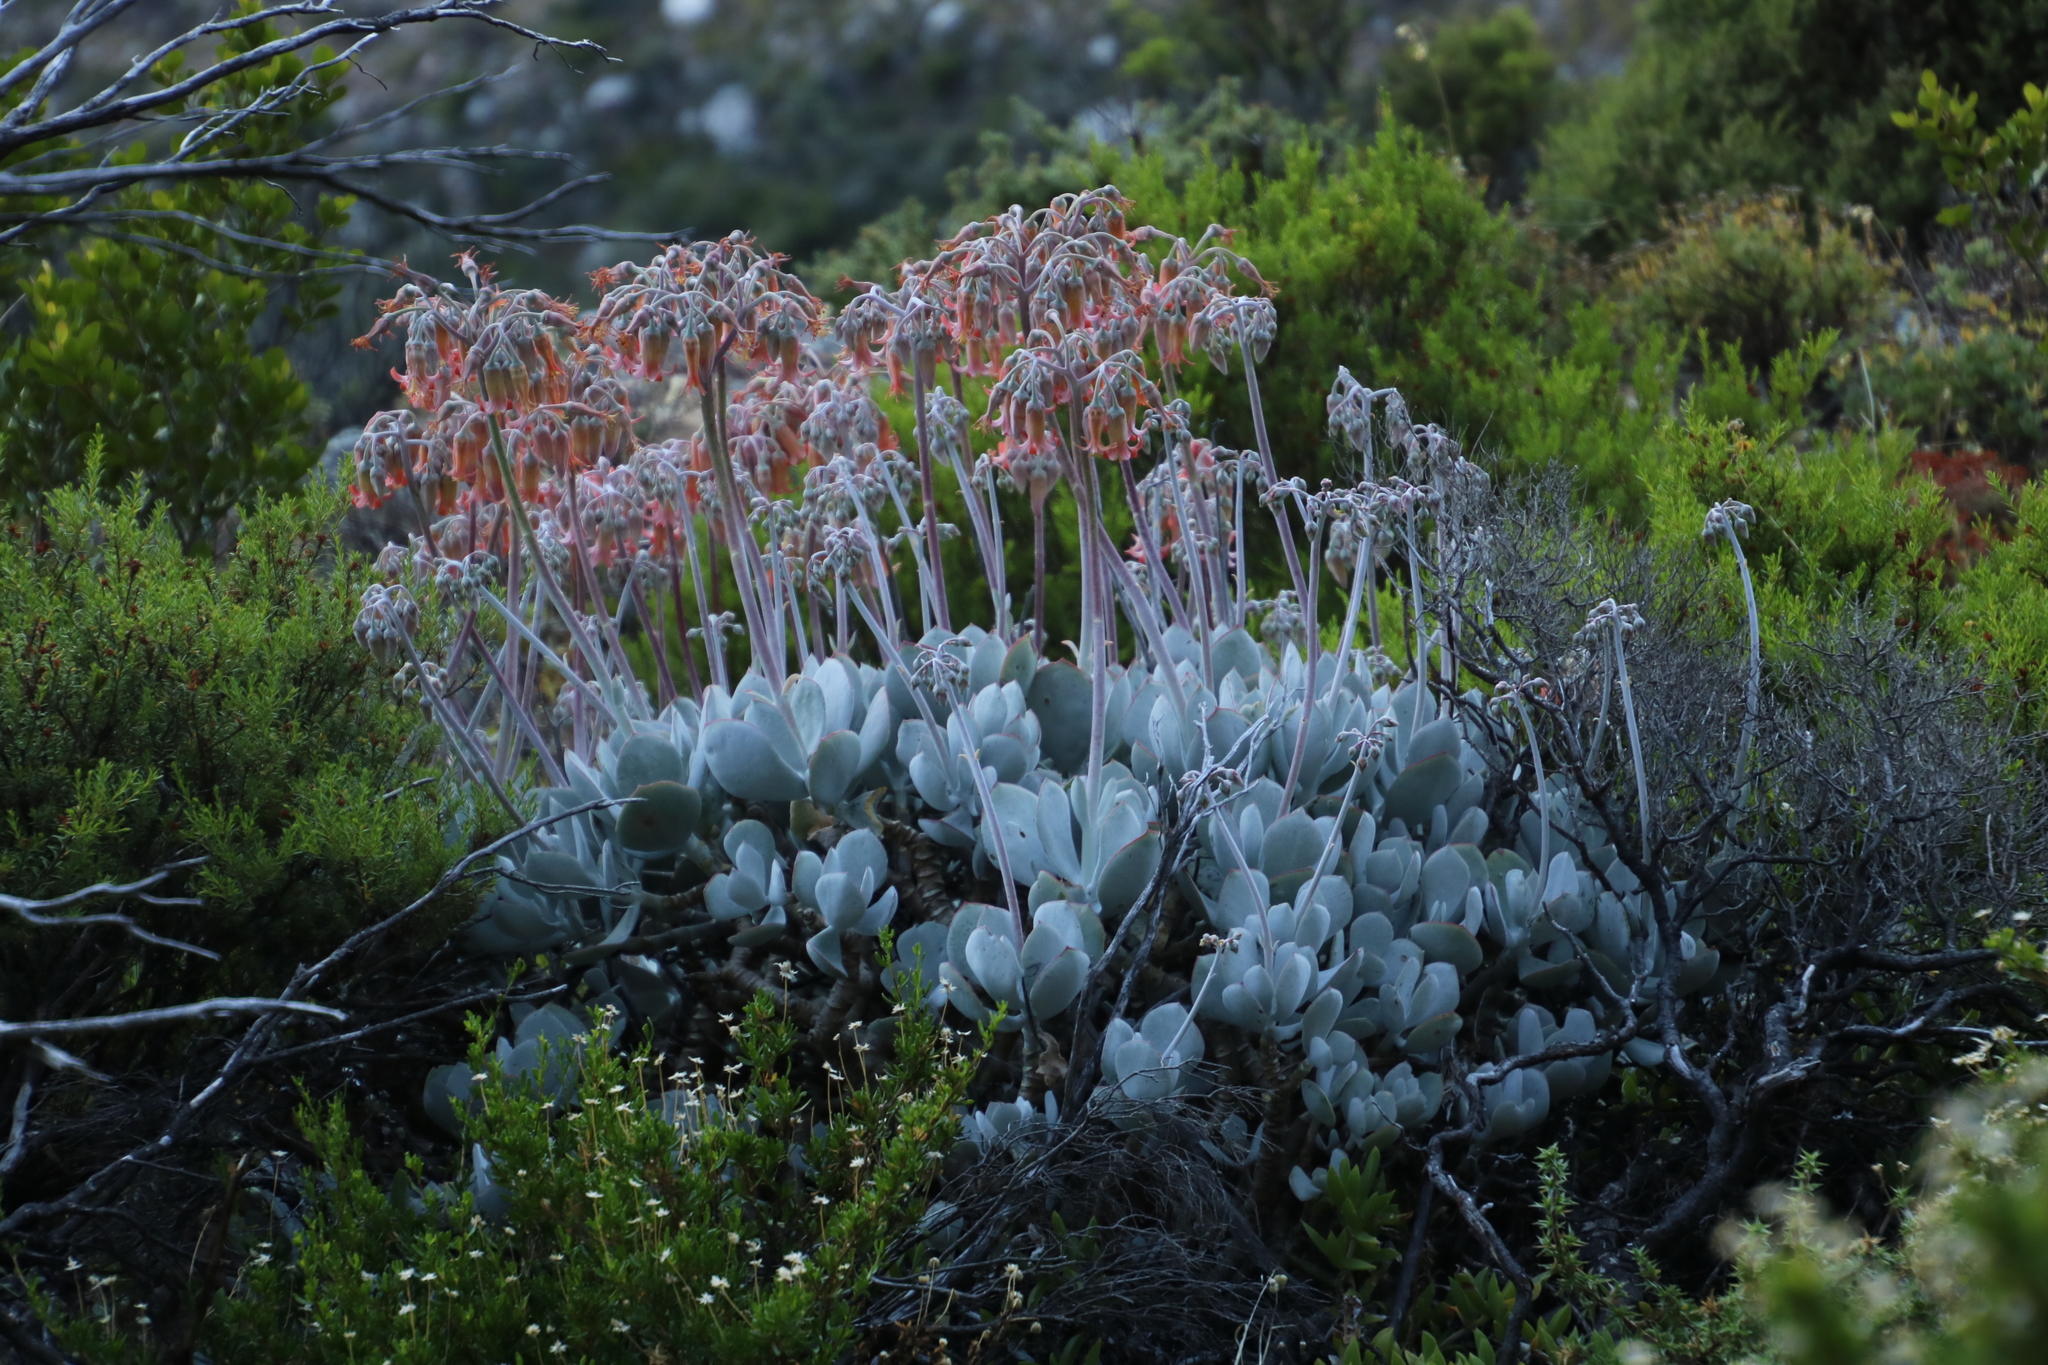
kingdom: Plantae
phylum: Tracheophyta
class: Magnoliopsida
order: Saxifragales
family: Crassulaceae
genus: Cotyledon
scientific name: Cotyledon orbiculata
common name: Pig's ear
